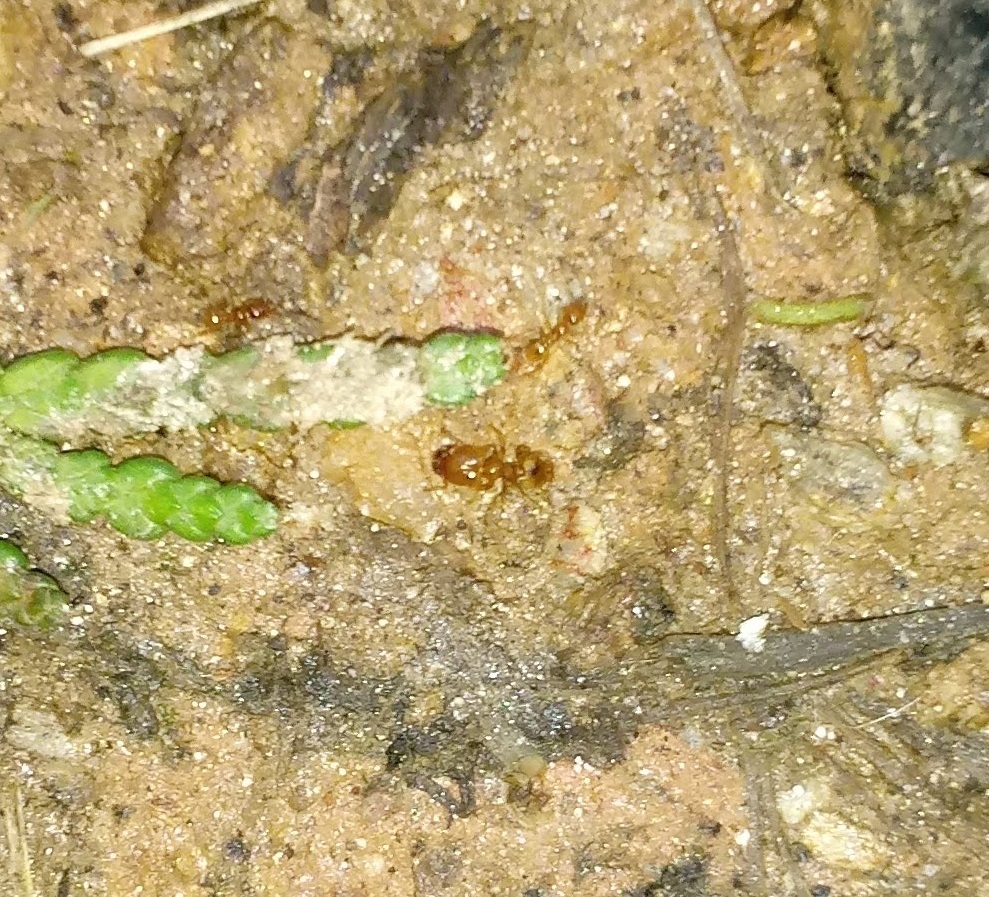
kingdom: Animalia
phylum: Arthropoda
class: Insecta
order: Hymenoptera
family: Formicidae
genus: Pheidole
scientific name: Pheidole tysoni
